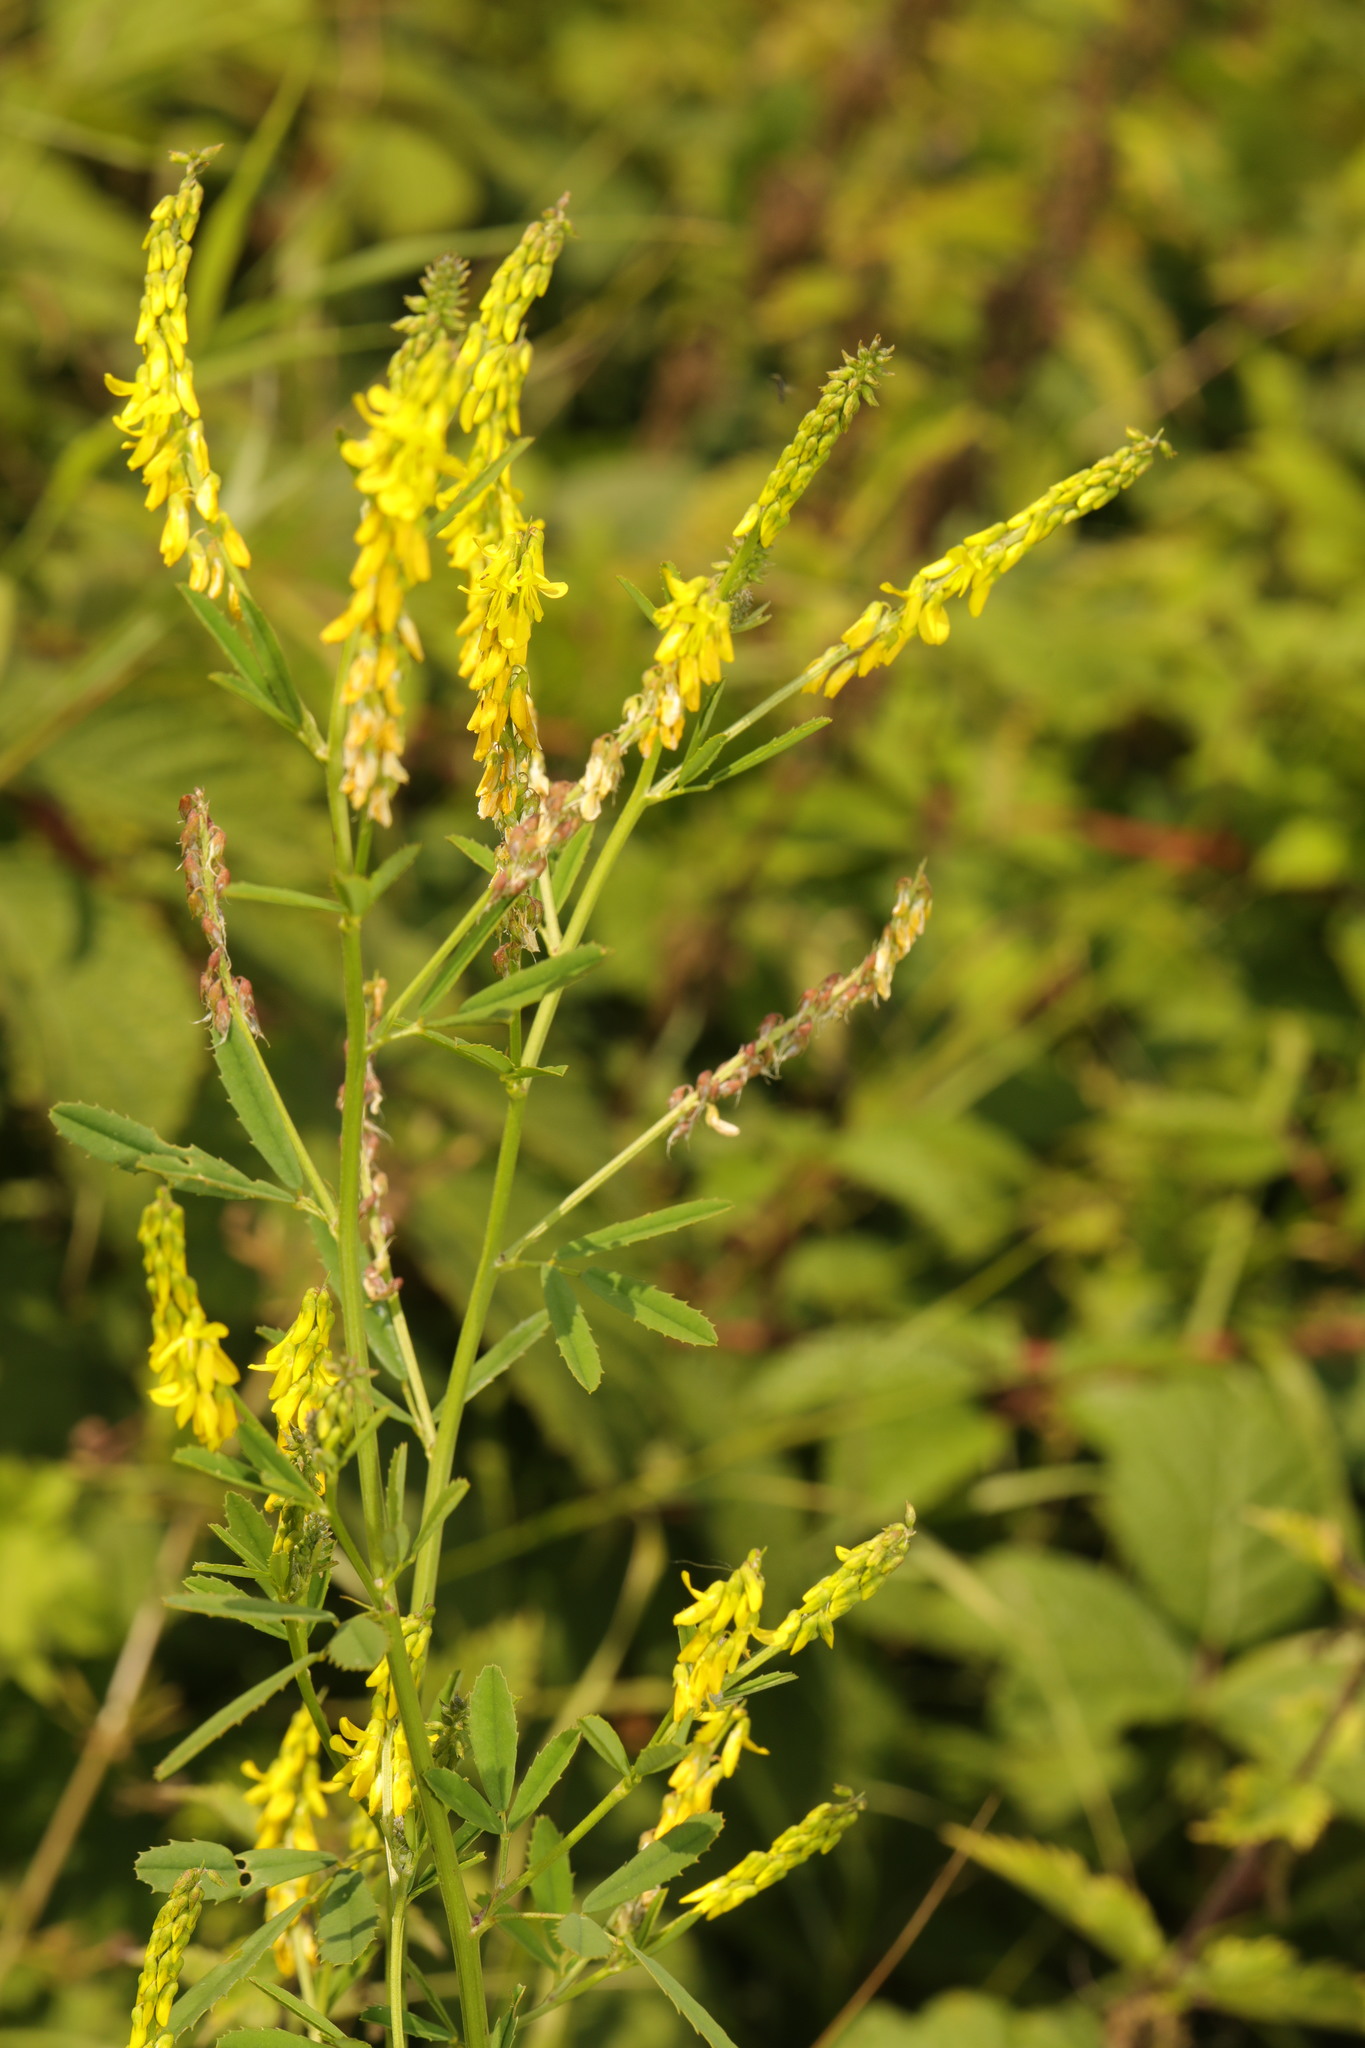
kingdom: Plantae
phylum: Tracheophyta
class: Magnoliopsida
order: Fabales
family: Fabaceae
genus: Melilotus
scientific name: Melilotus officinalis
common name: Sweetclover
